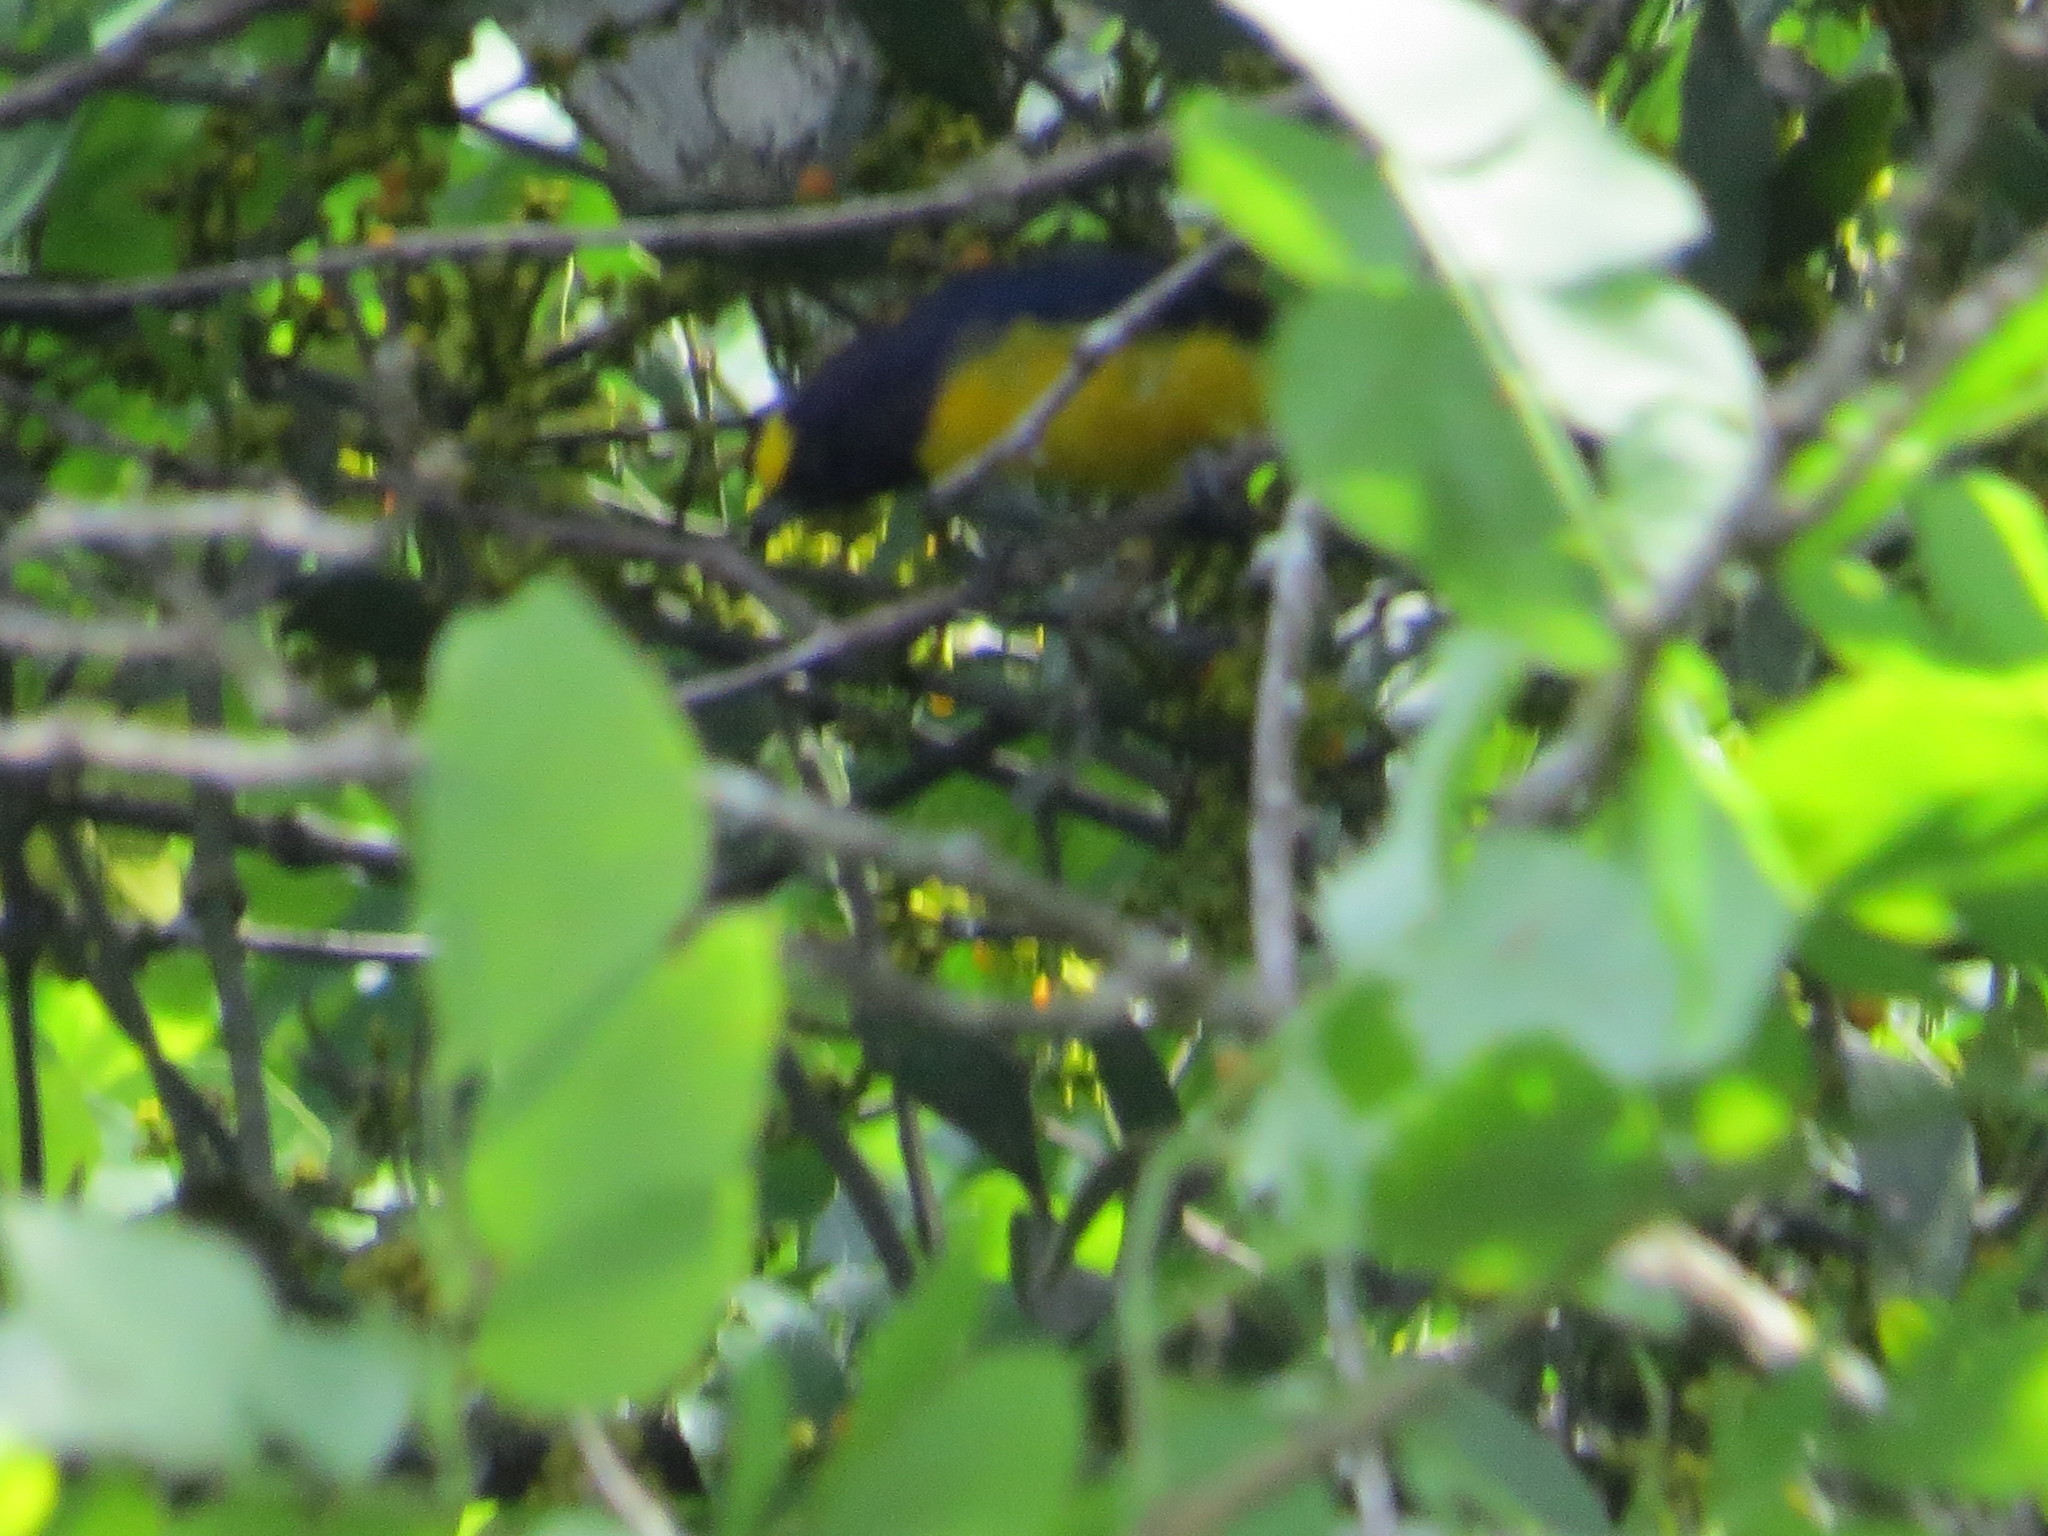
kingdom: Animalia
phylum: Chordata
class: Aves
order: Passeriformes
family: Fringillidae
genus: Euphonia
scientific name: Euphonia chlorotica
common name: Purple-throated euphonia
